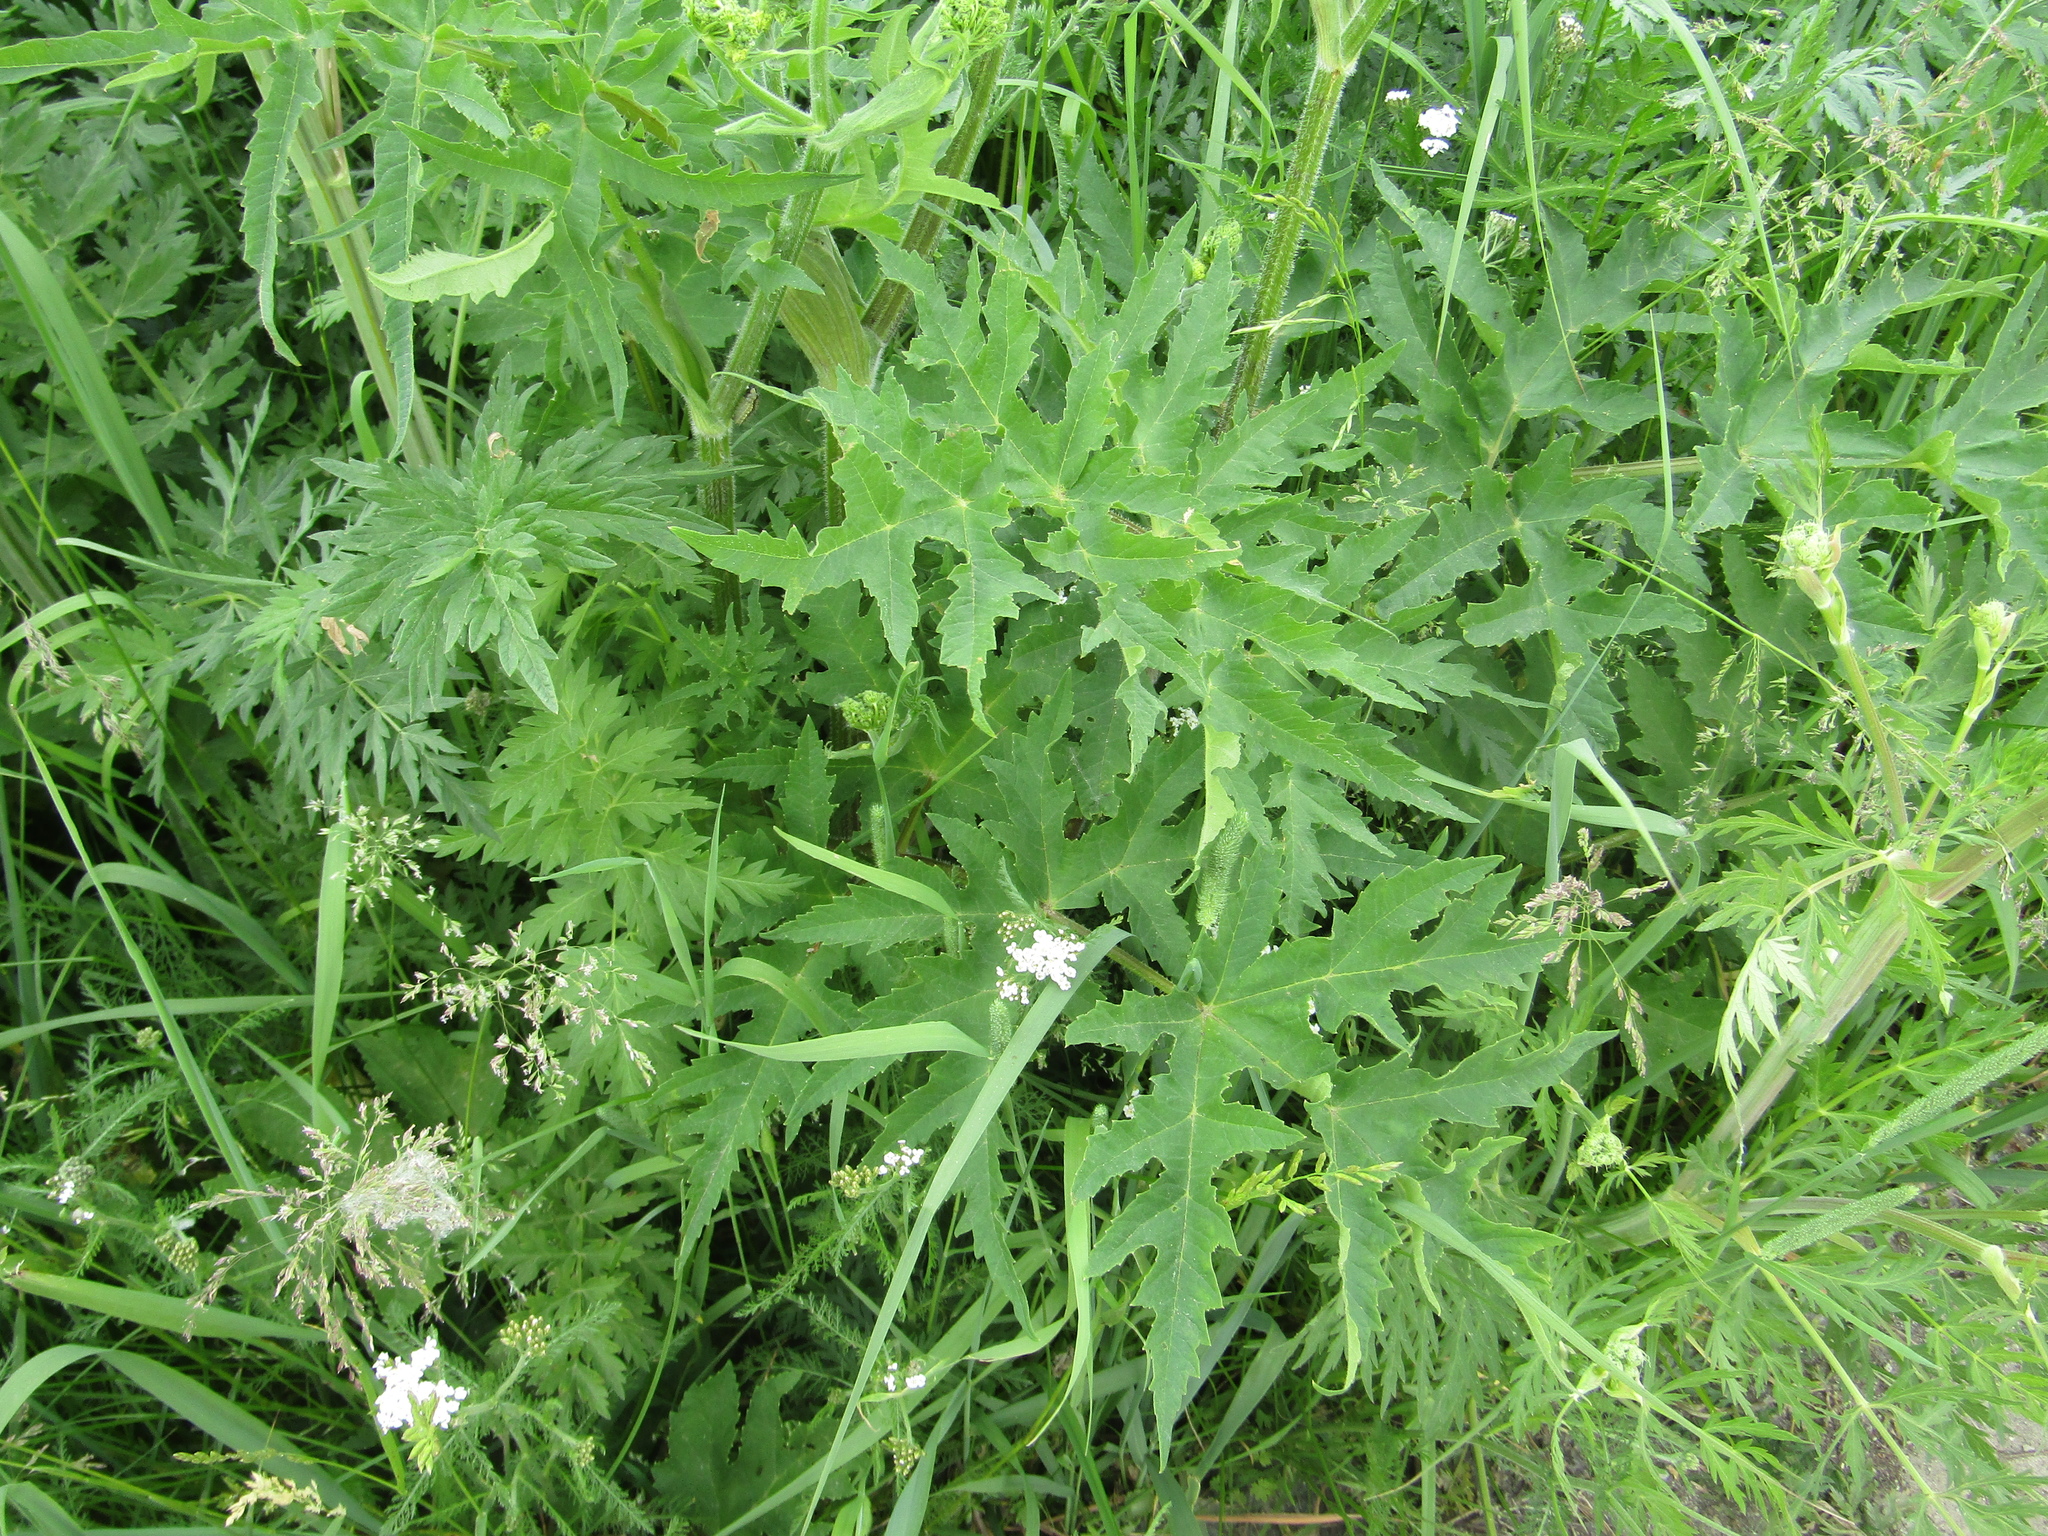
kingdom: Plantae
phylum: Tracheophyta
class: Magnoliopsida
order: Apiales
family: Apiaceae
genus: Heracleum
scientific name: Heracleum sphondylium
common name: Hogweed
